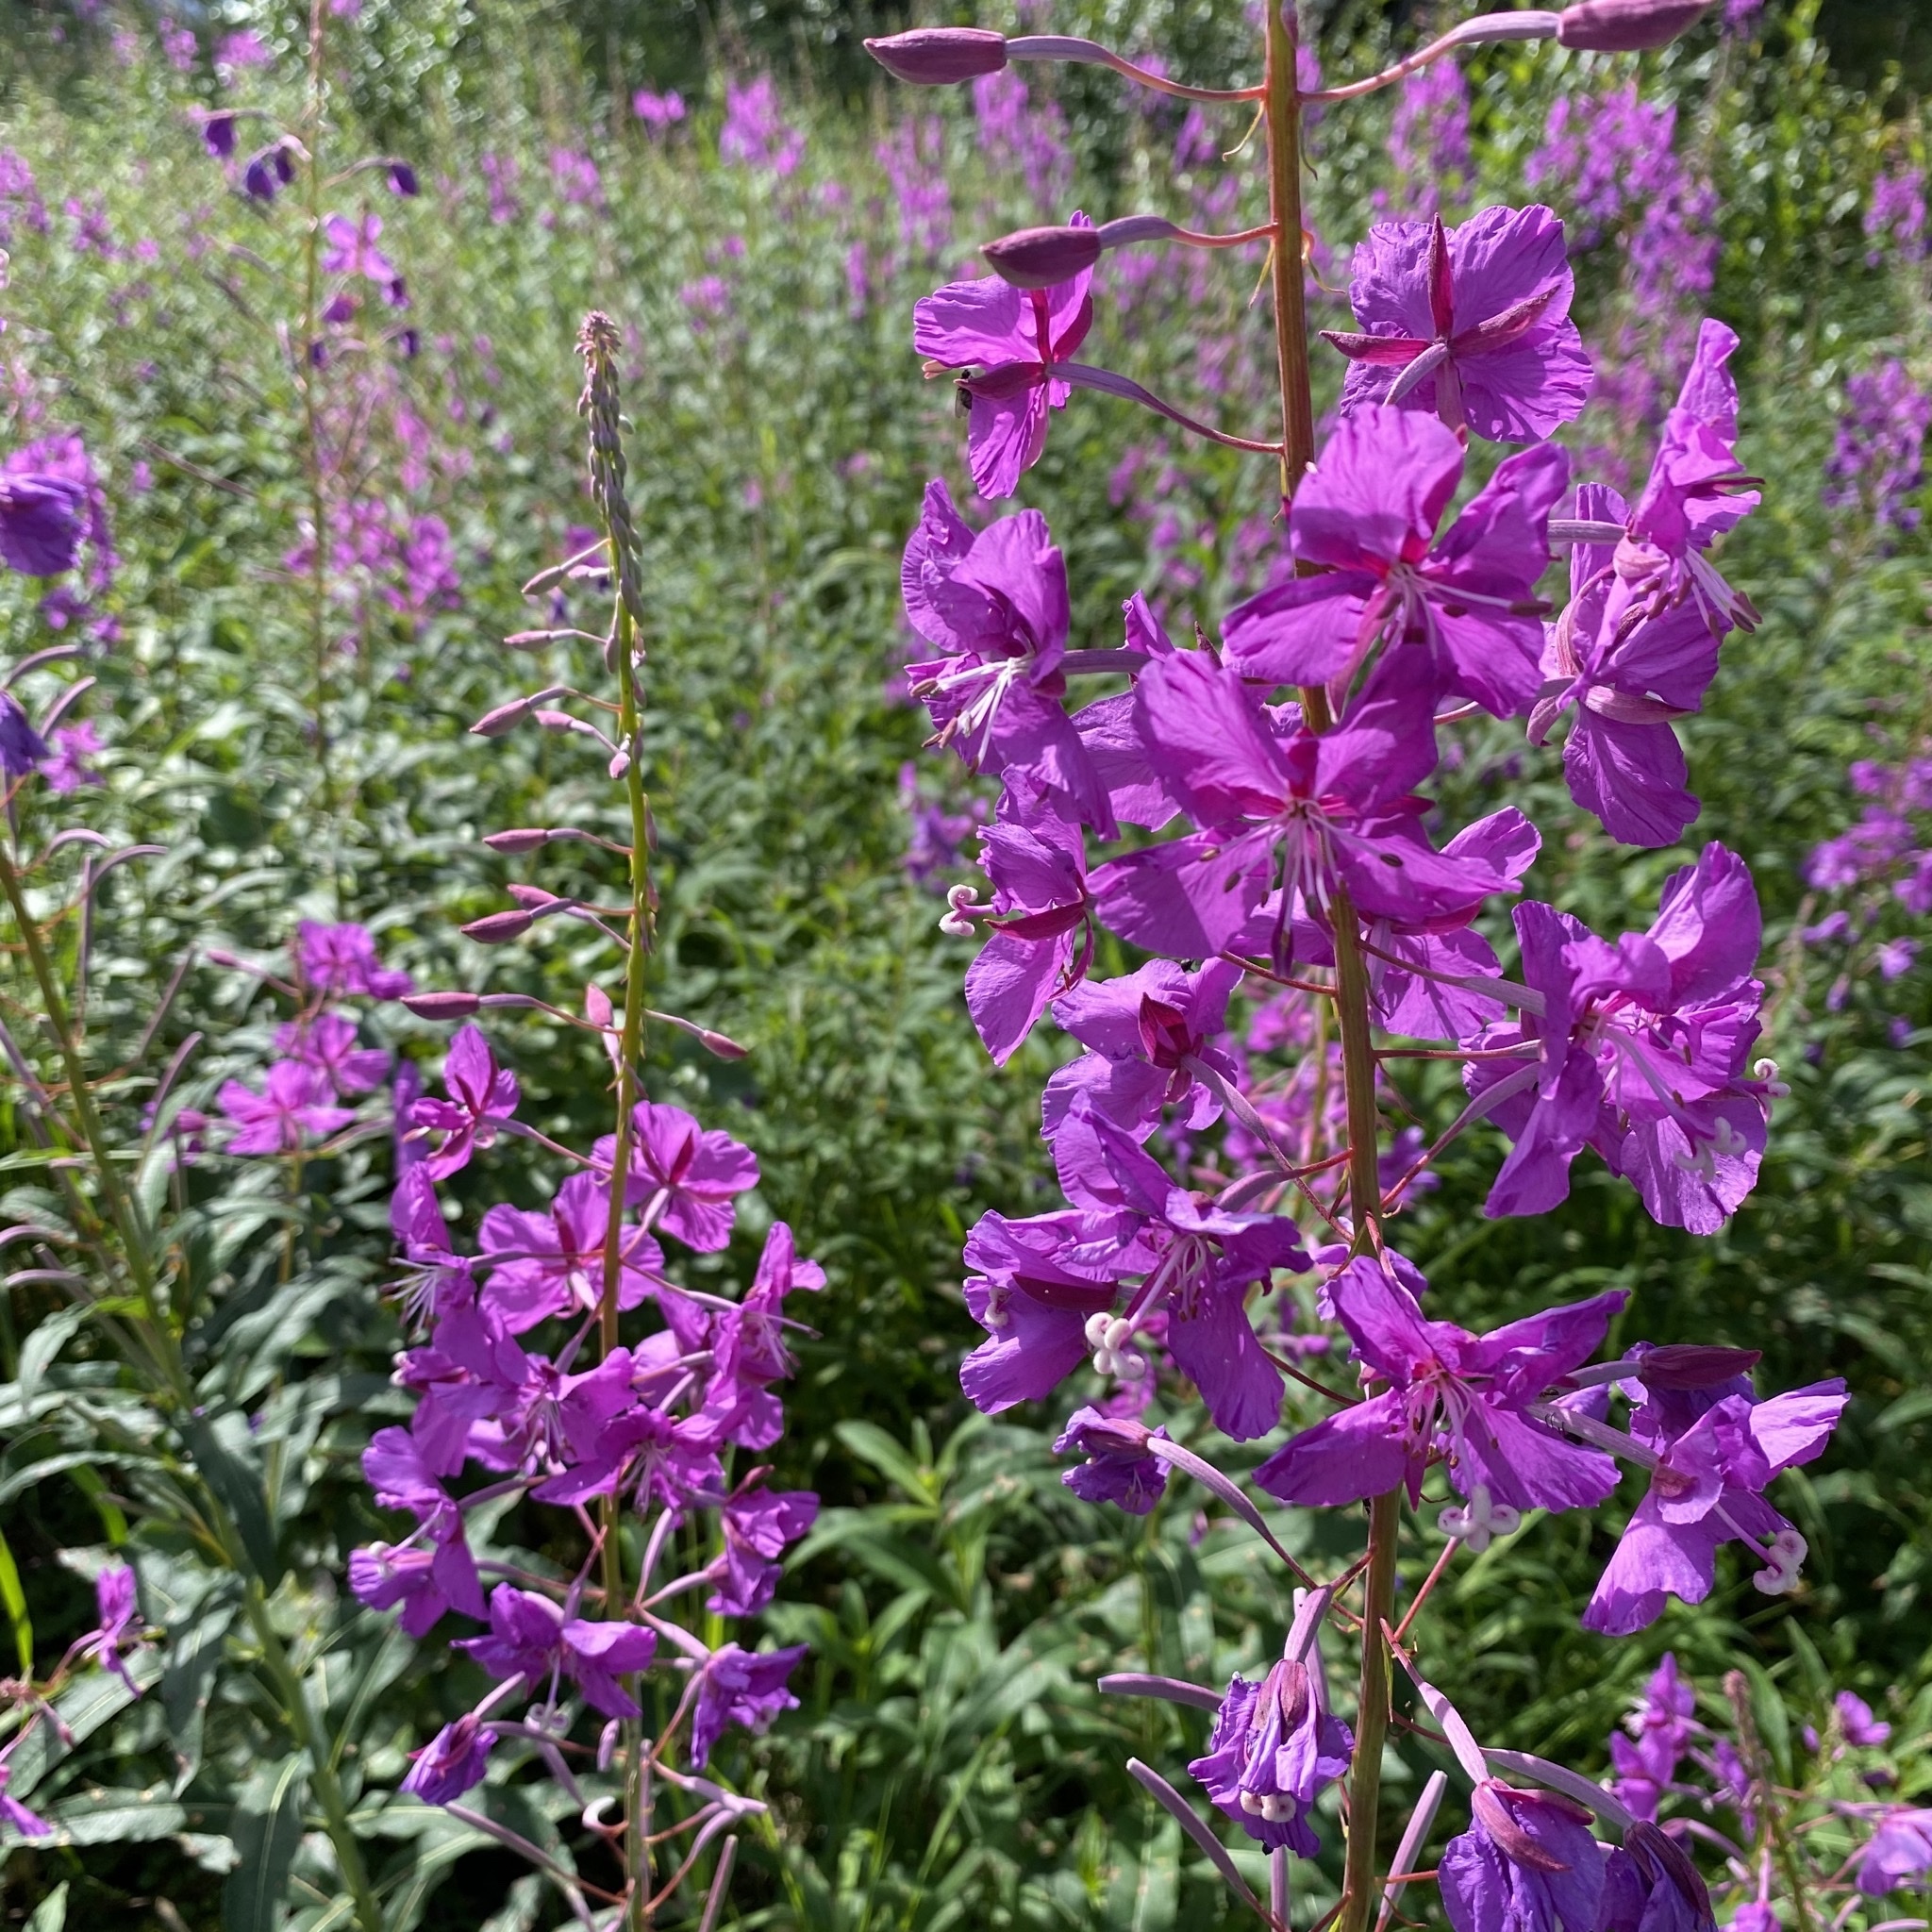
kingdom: Plantae
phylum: Tracheophyta
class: Magnoliopsida
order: Myrtales
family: Onagraceae
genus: Chamaenerion
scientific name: Chamaenerion angustifolium
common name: Fireweed
